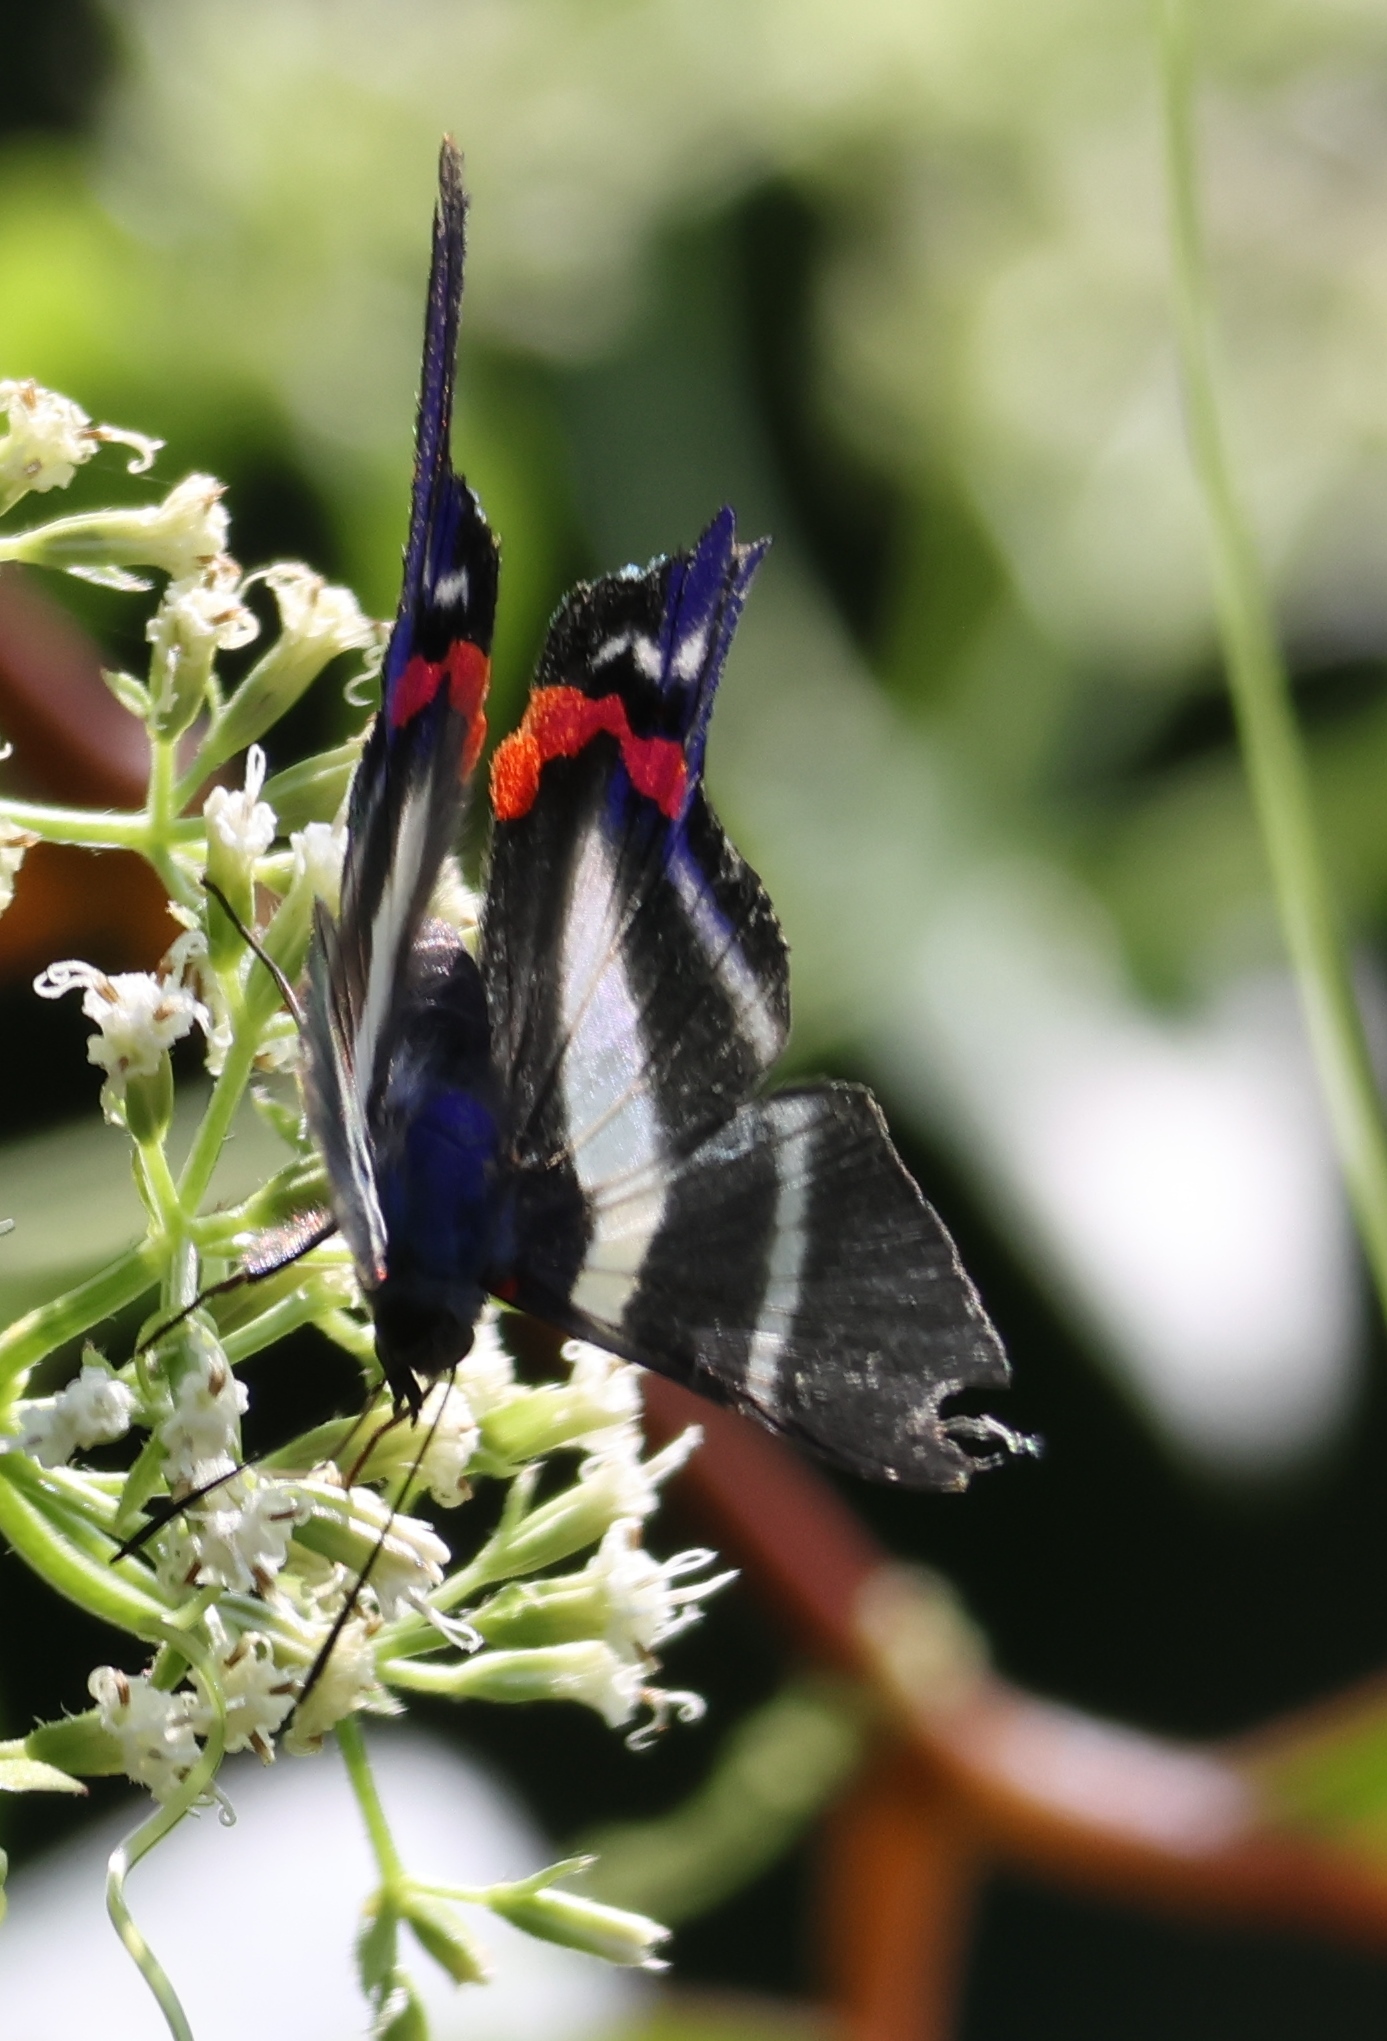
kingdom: Animalia
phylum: Arthropoda
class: Insecta
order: Lepidoptera
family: Riodinidae
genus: Rhetus
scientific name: Rhetus arcius
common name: Long-tailed metalmark
